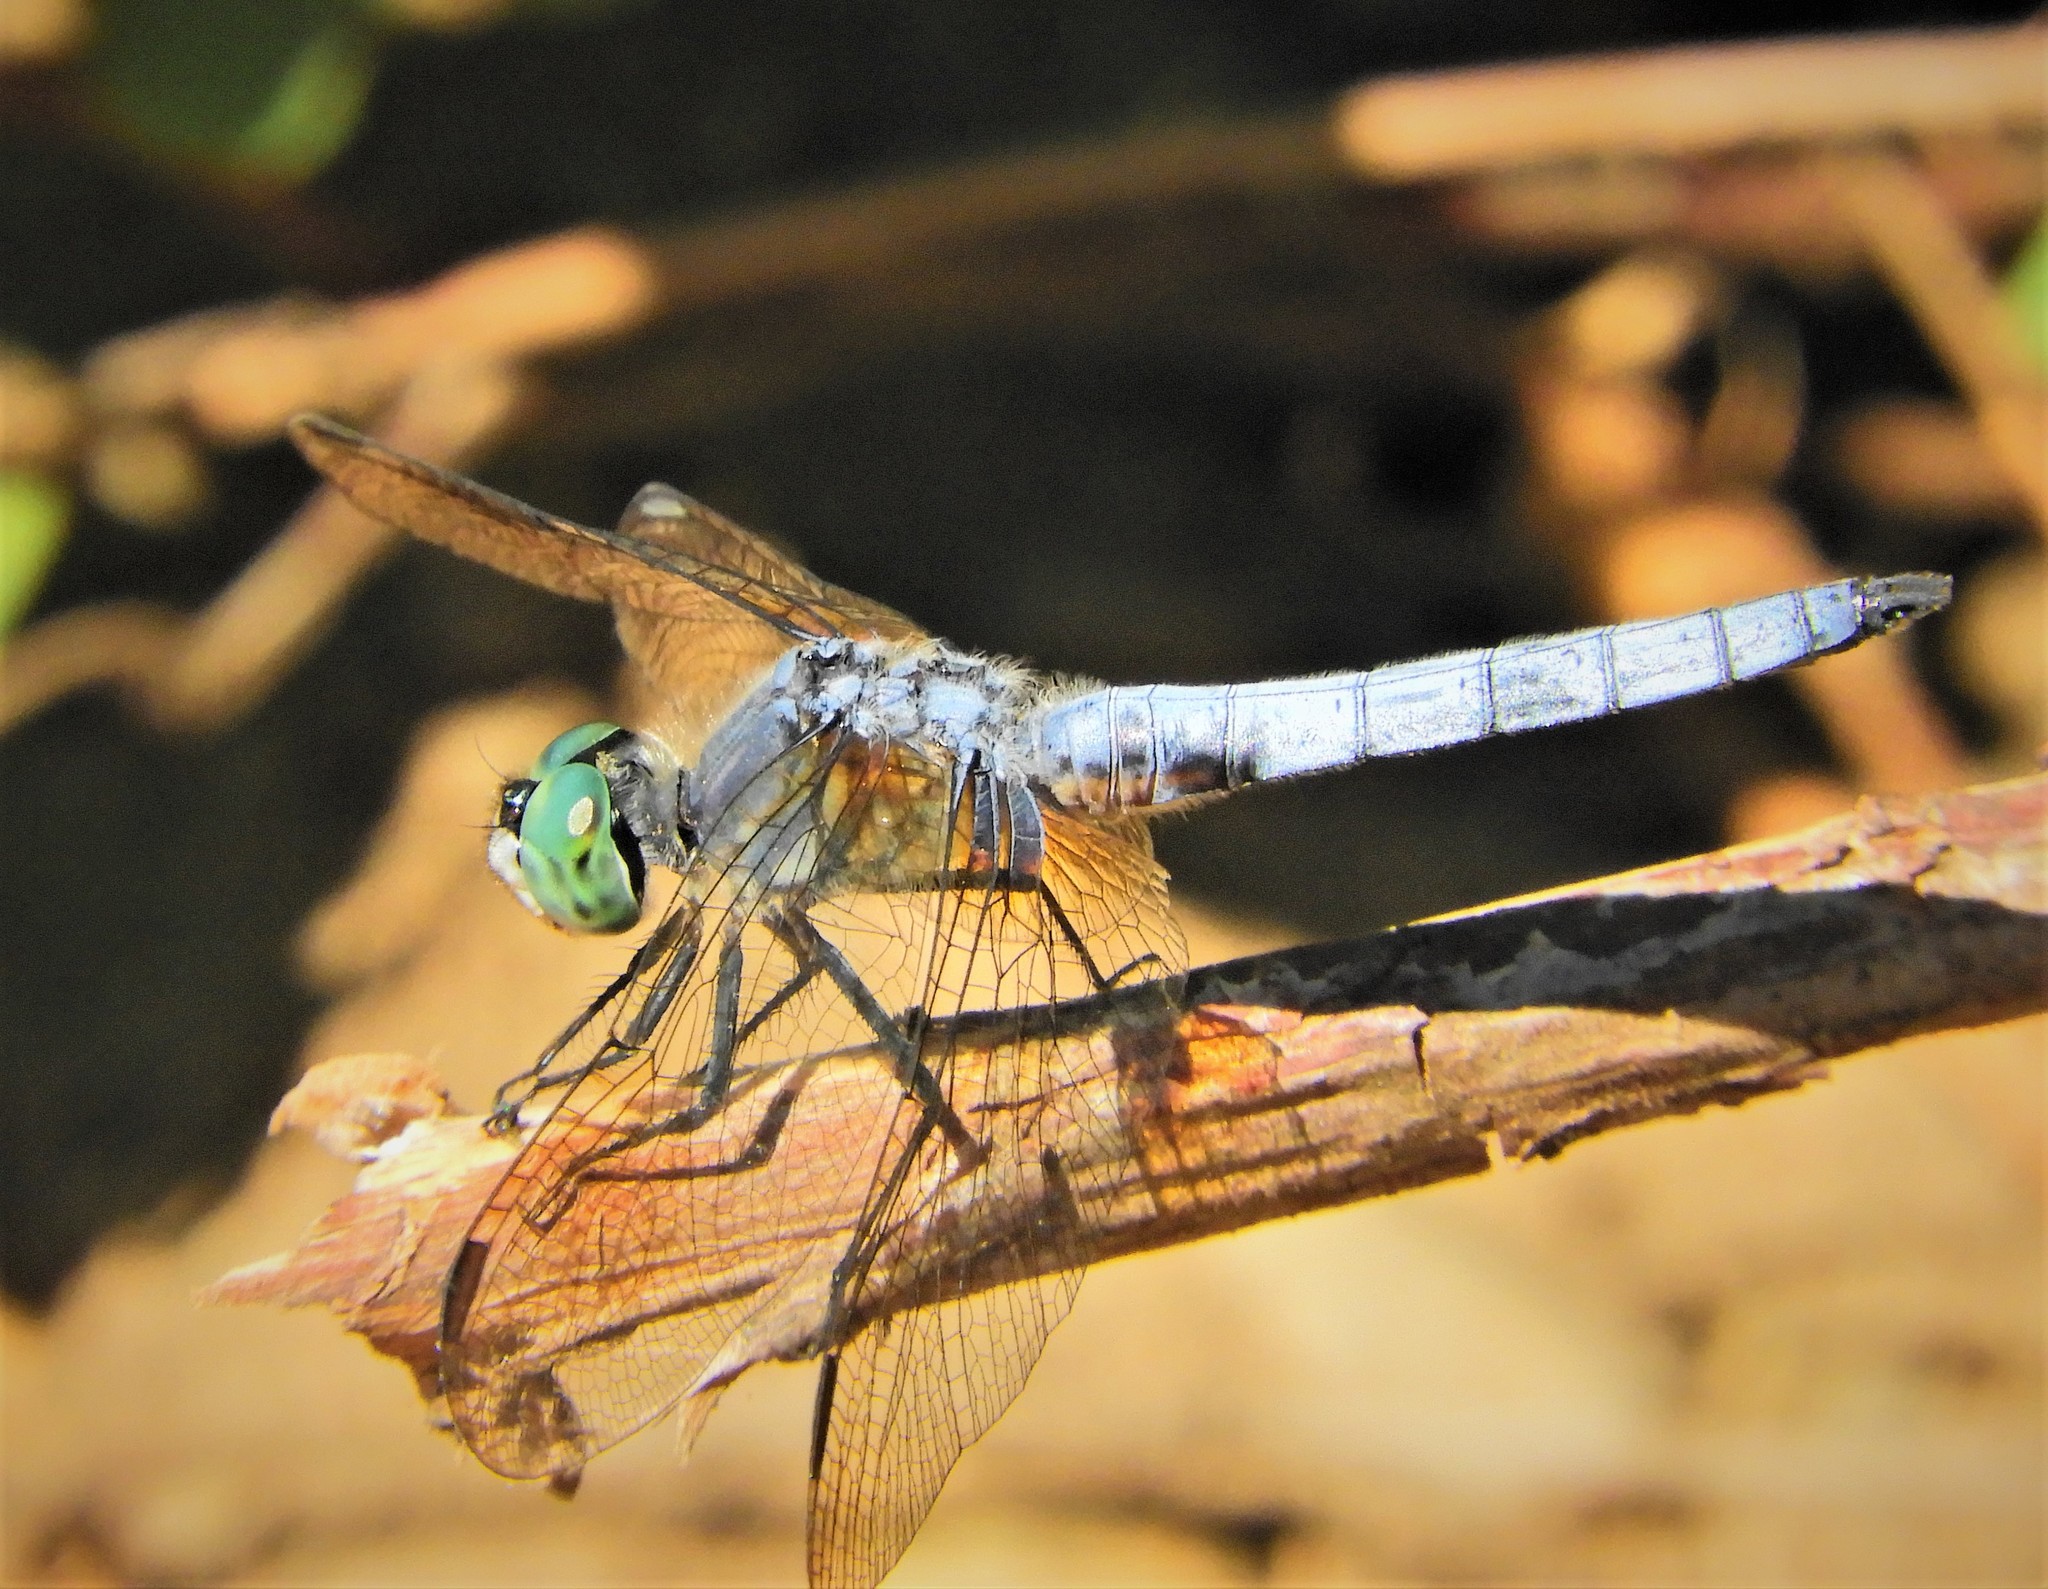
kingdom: Animalia
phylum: Arthropoda
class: Insecta
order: Odonata
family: Libellulidae
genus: Pachydiplax
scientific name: Pachydiplax longipennis
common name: Blue dasher
